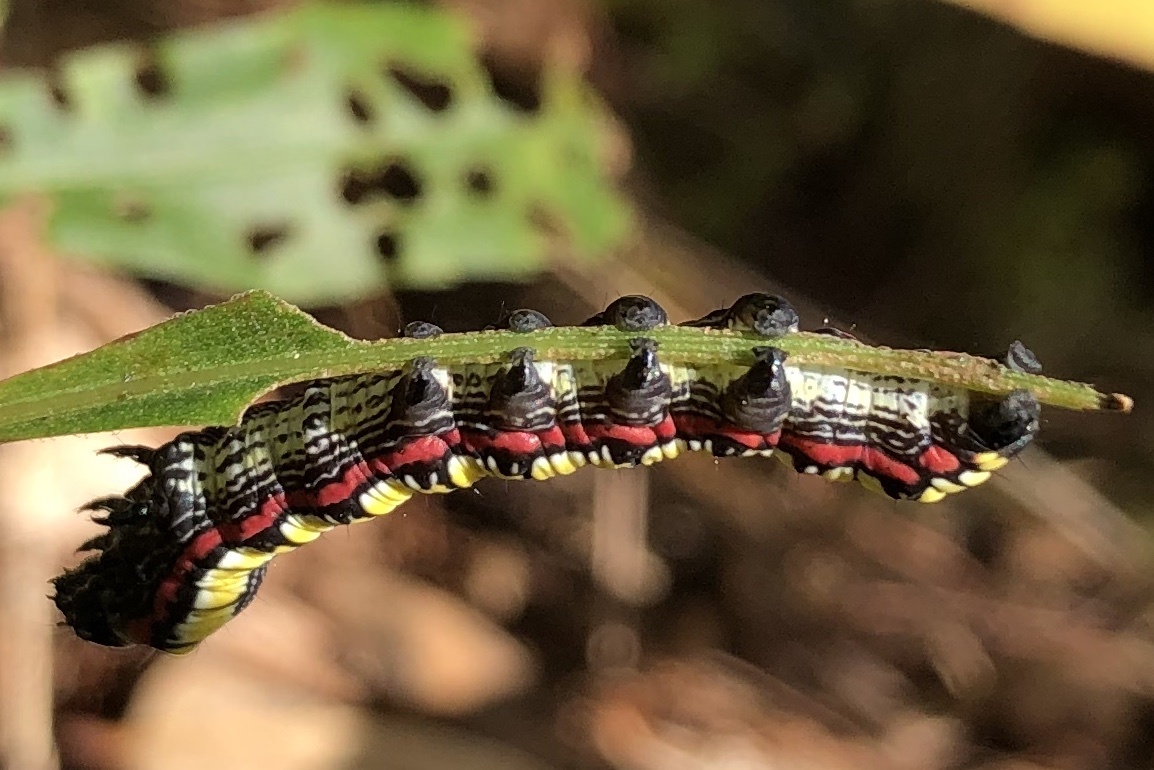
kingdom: Animalia
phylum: Arthropoda
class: Insecta
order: Lepidoptera
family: Noctuidae
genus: Cucullia
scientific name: Cucullia convexipennis
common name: Brown-hooded owlet
